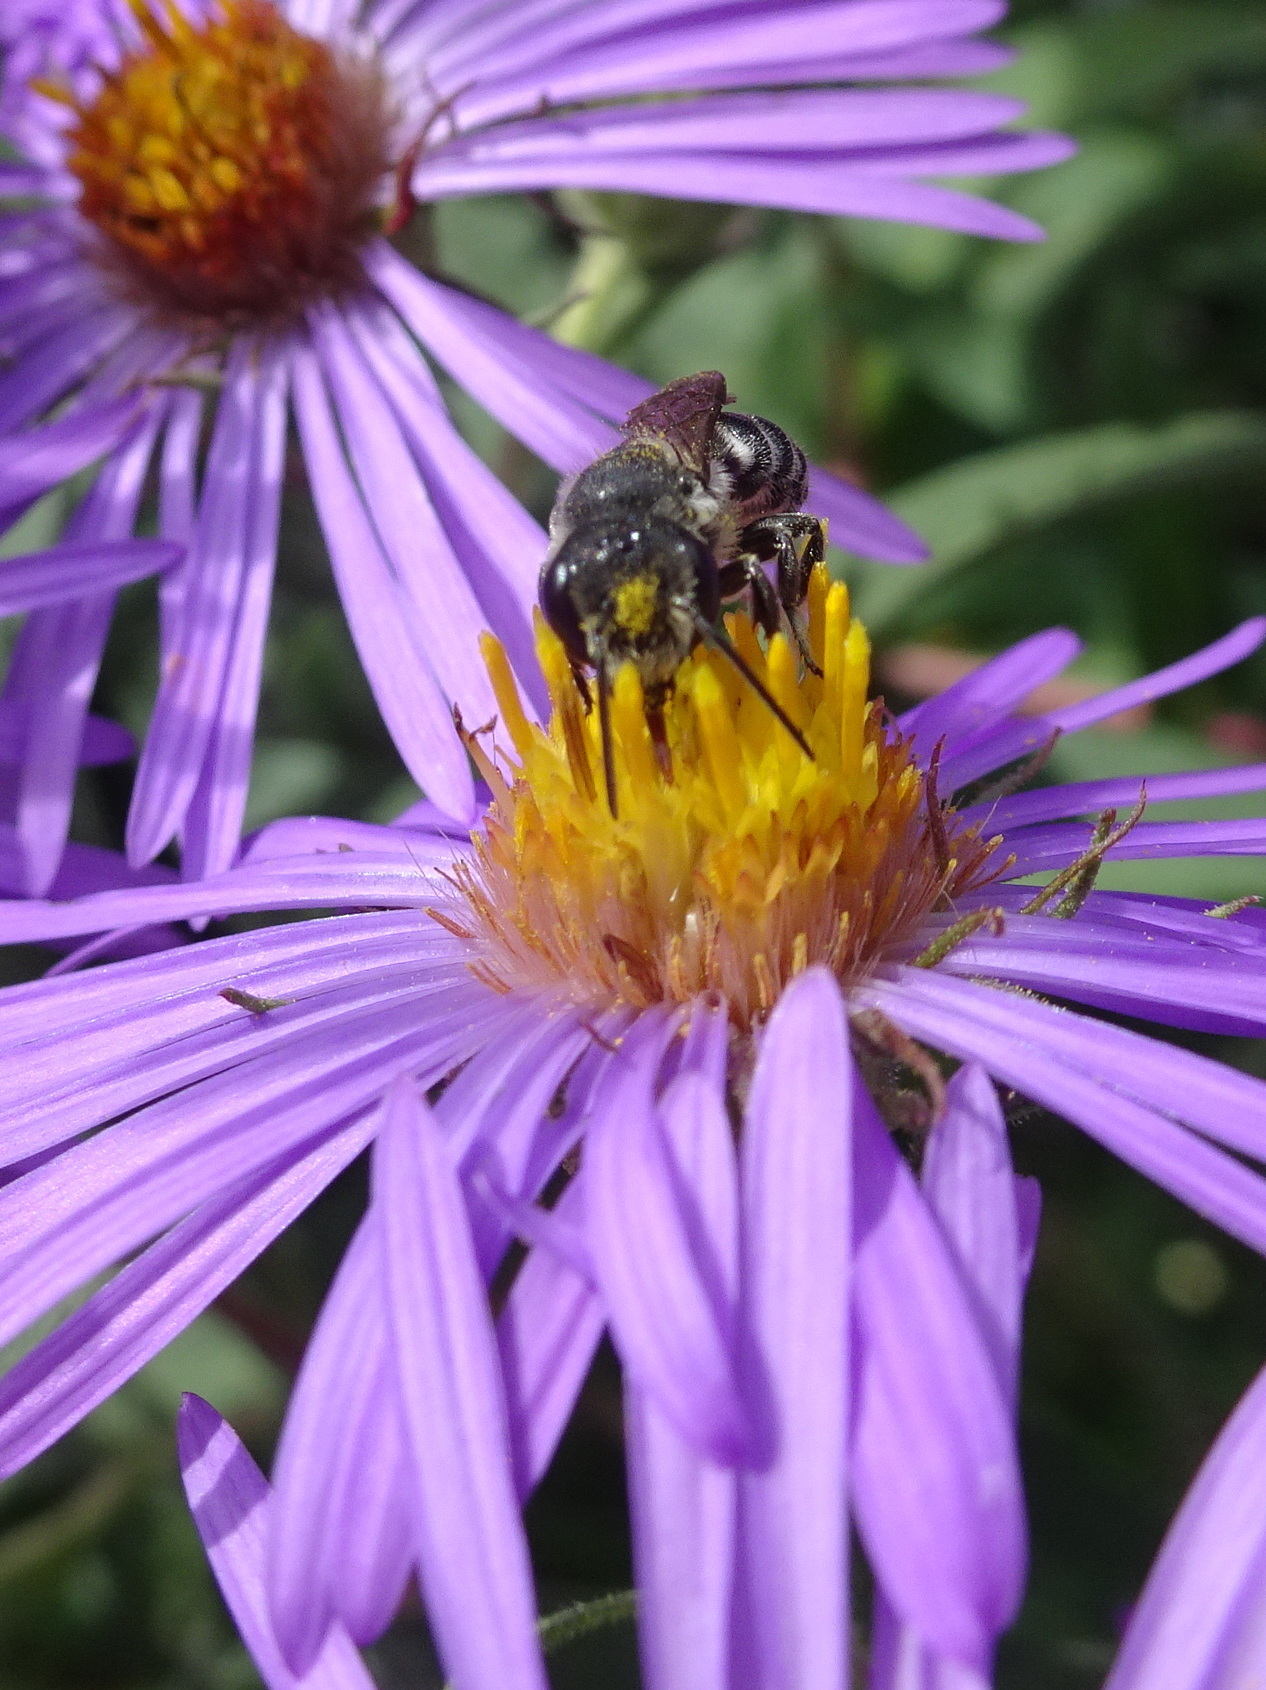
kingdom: Animalia
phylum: Arthropoda
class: Insecta
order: Hymenoptera
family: Megachilidae
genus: Megachile
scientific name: Megachile campanulae
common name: Bellflower resin bee
